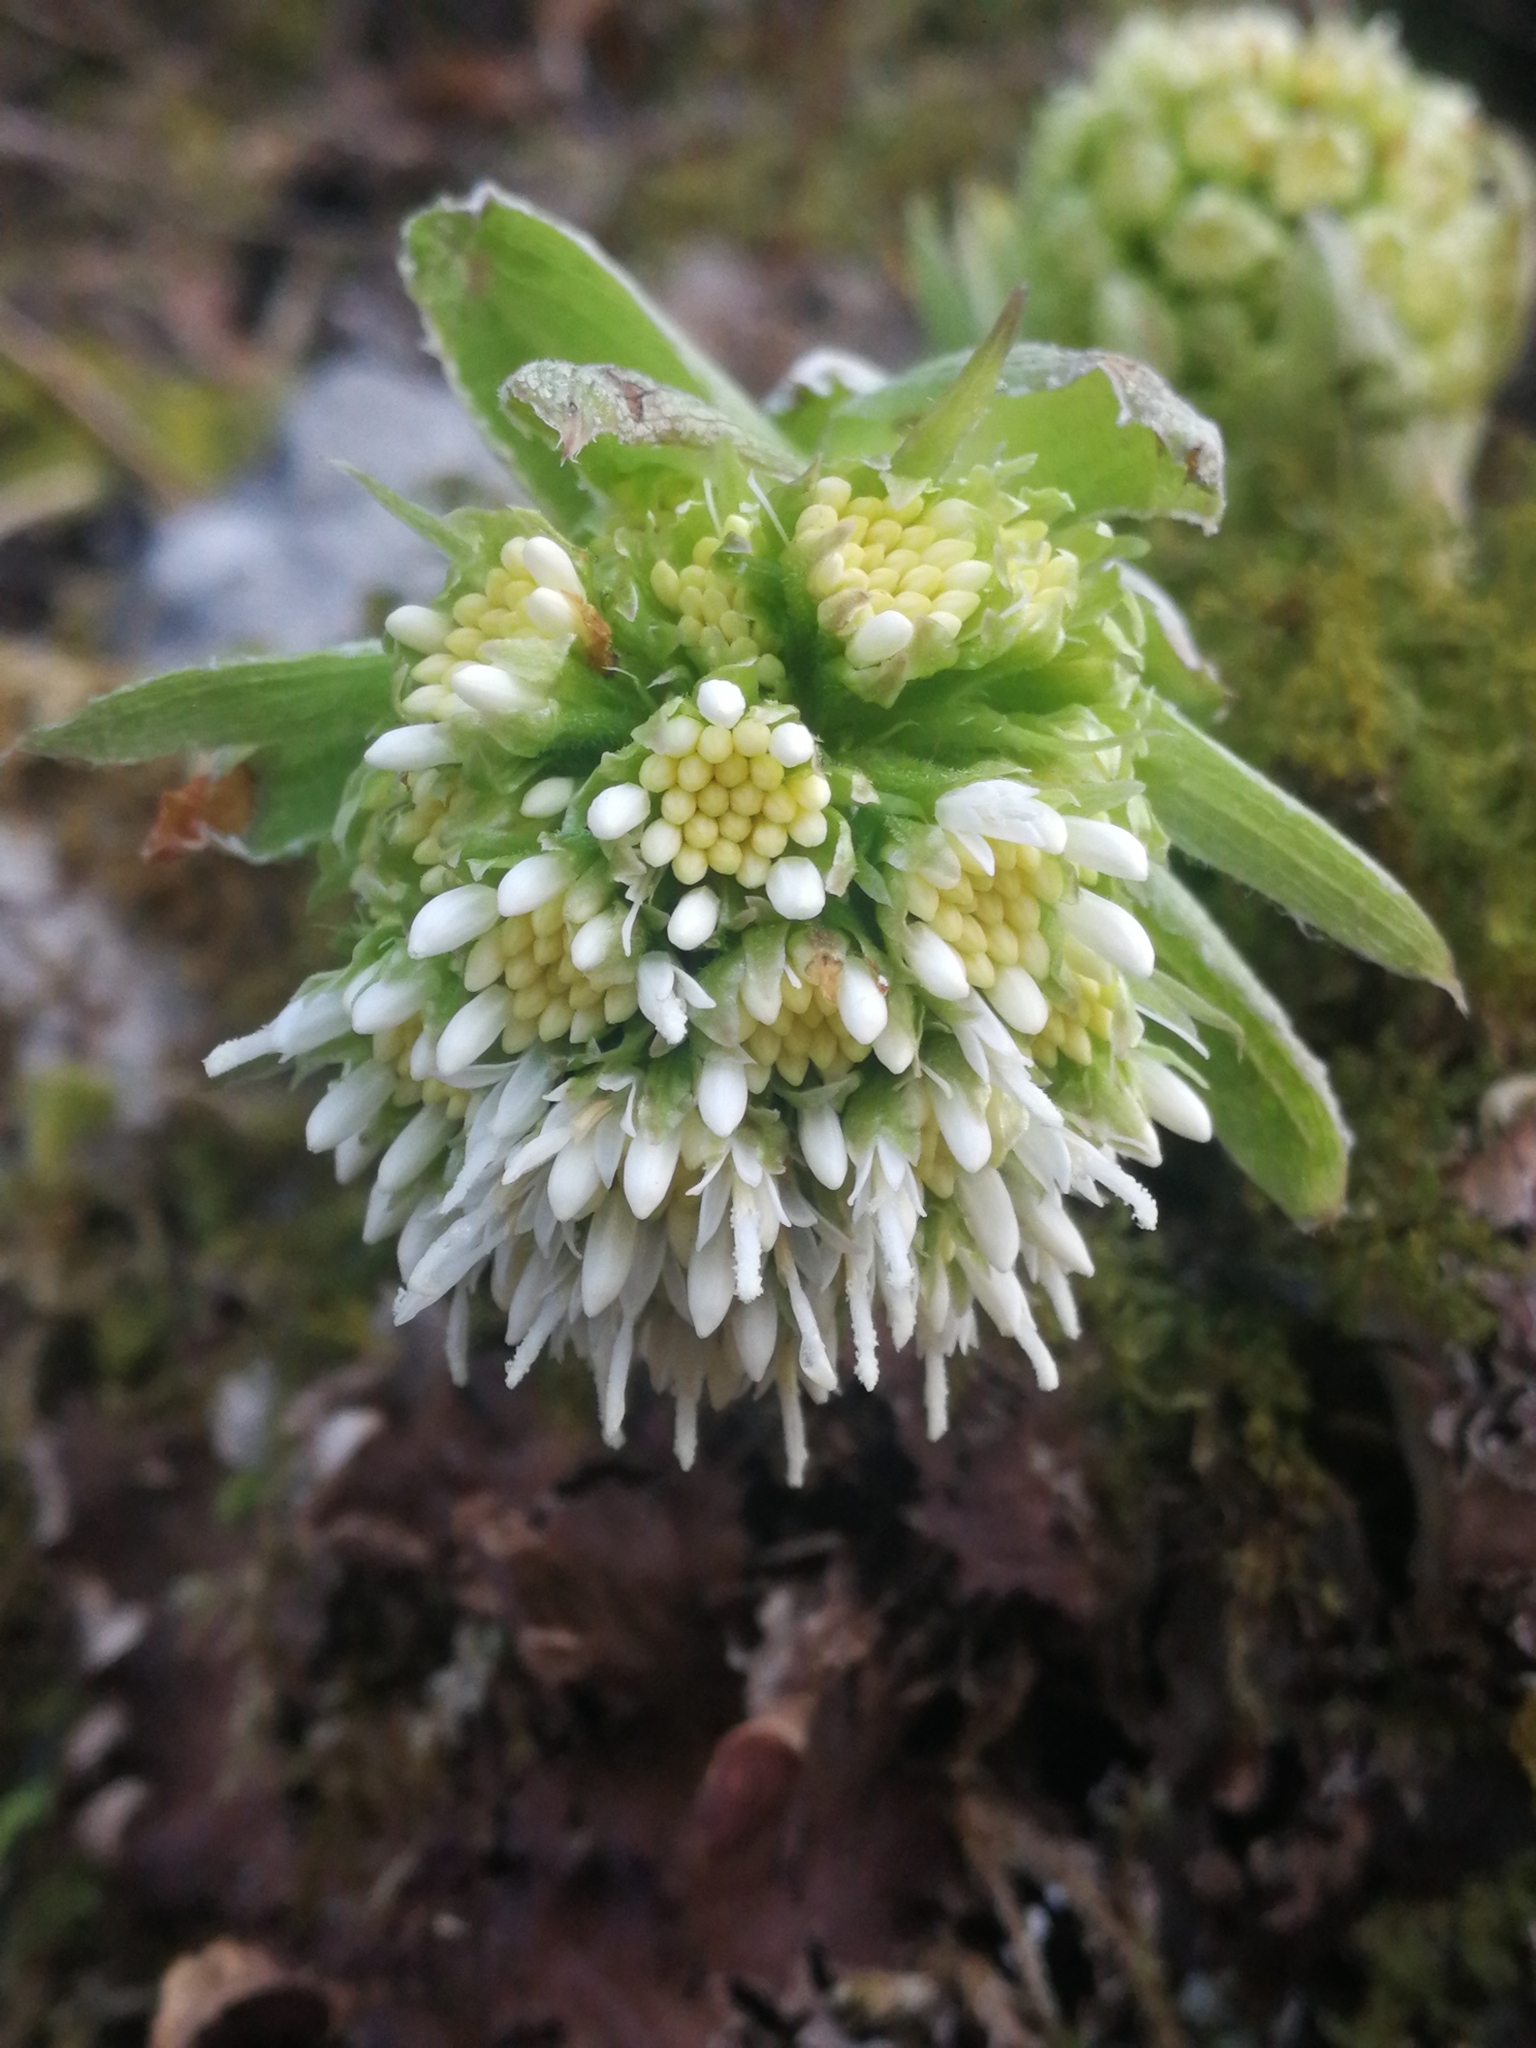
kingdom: Plantae
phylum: Tracheophyta
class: Magnoliopsida
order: Asterales
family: Asteraceae
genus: Petasites
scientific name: Petasites albus
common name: White butterbur
